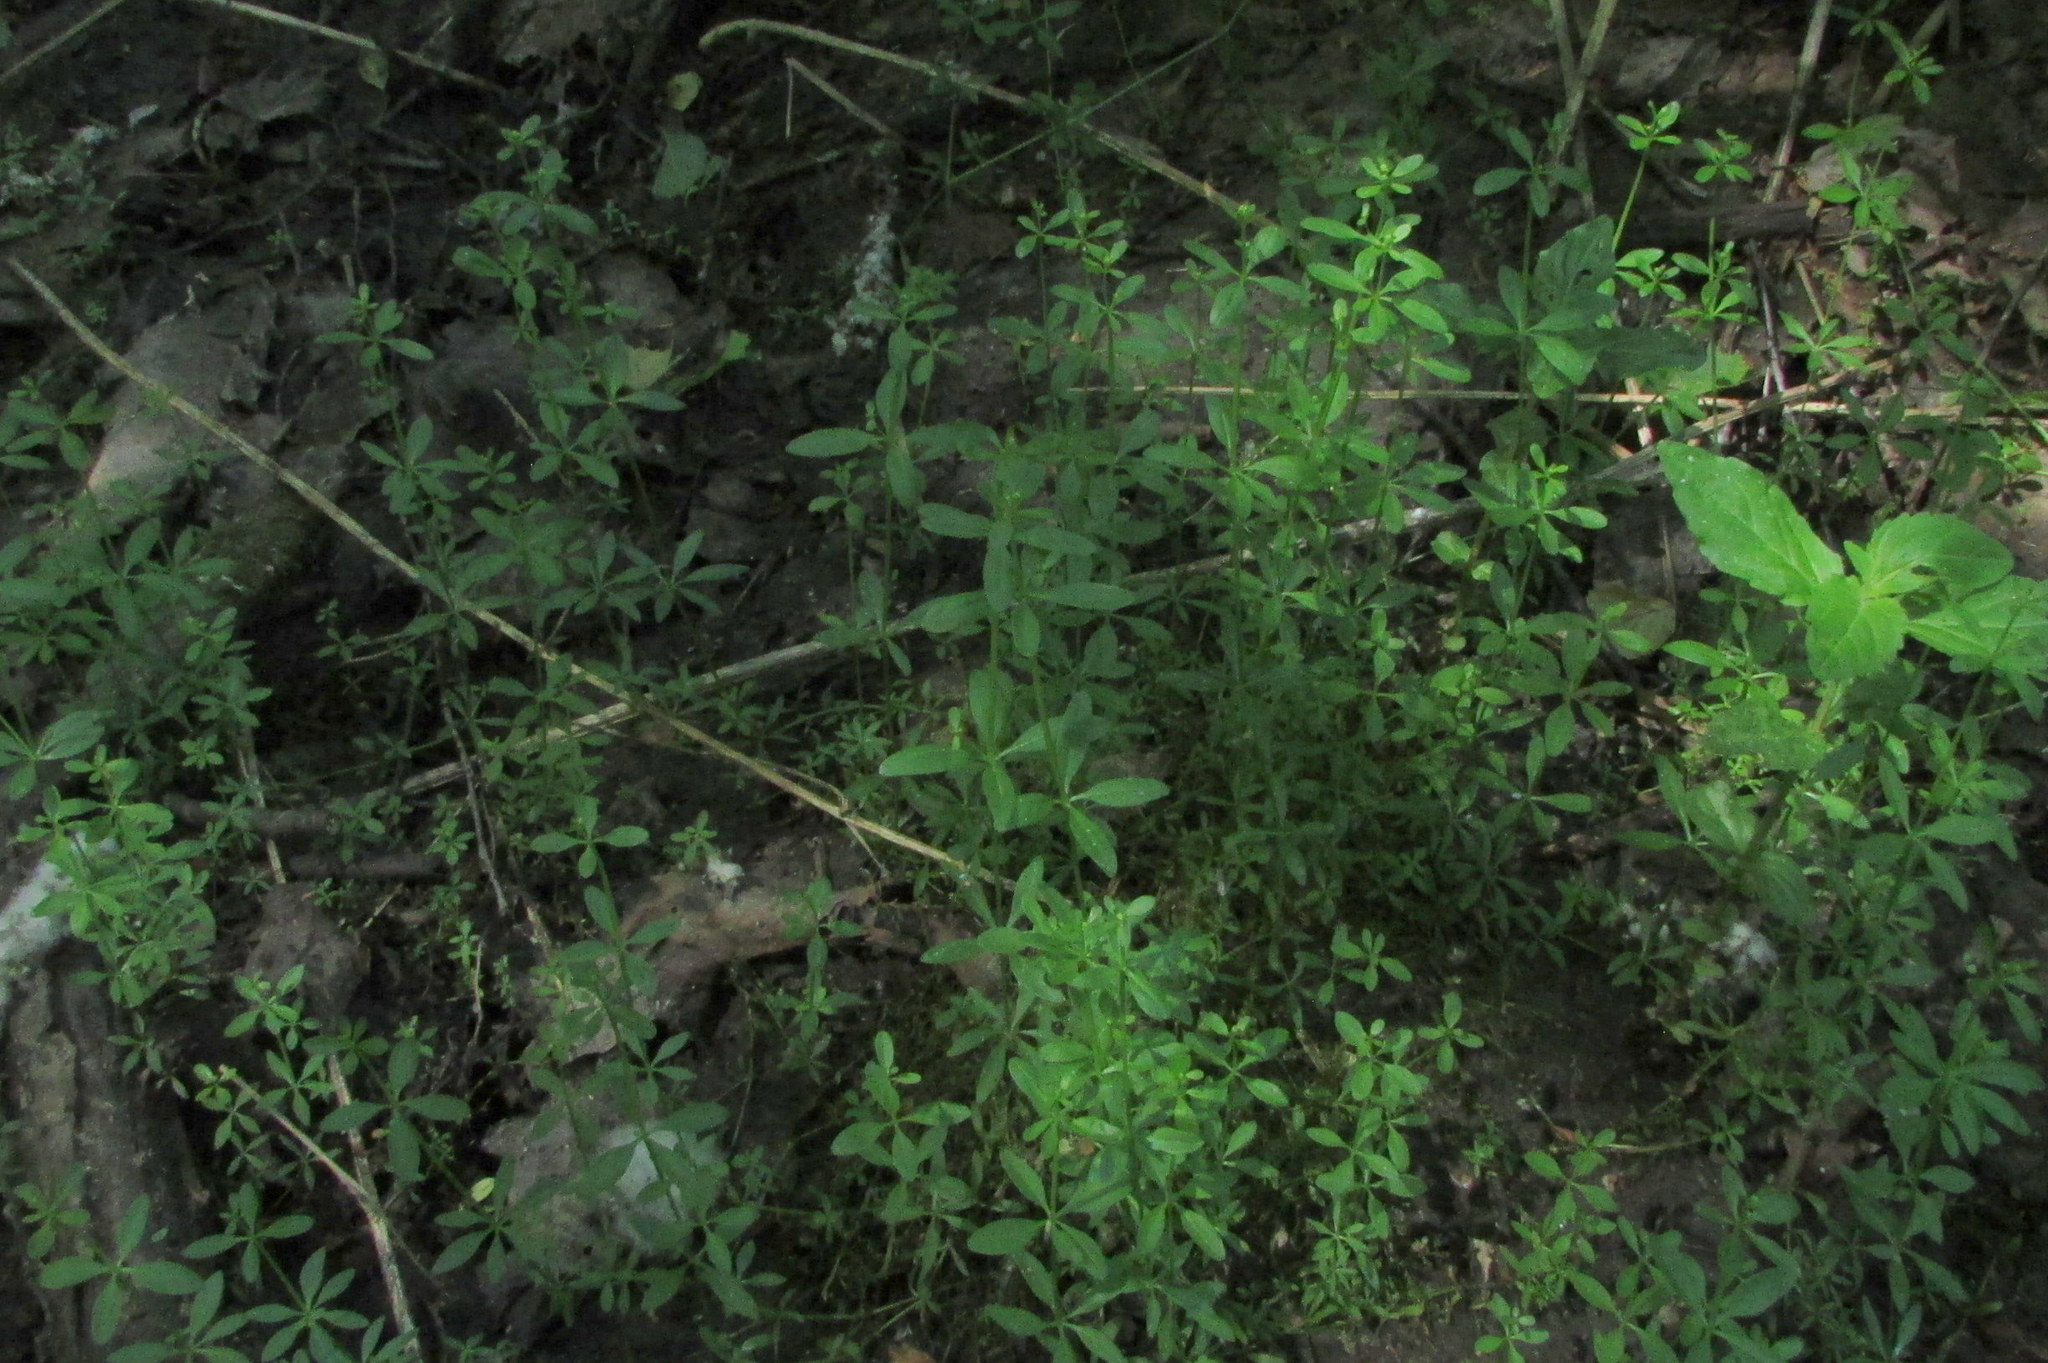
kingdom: Plantae
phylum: Tracheophyta
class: Magnoliopsida
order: Gentianales
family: Rubiaceae
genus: Galium
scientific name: Galium palustre
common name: Common marsh-bedstraw
